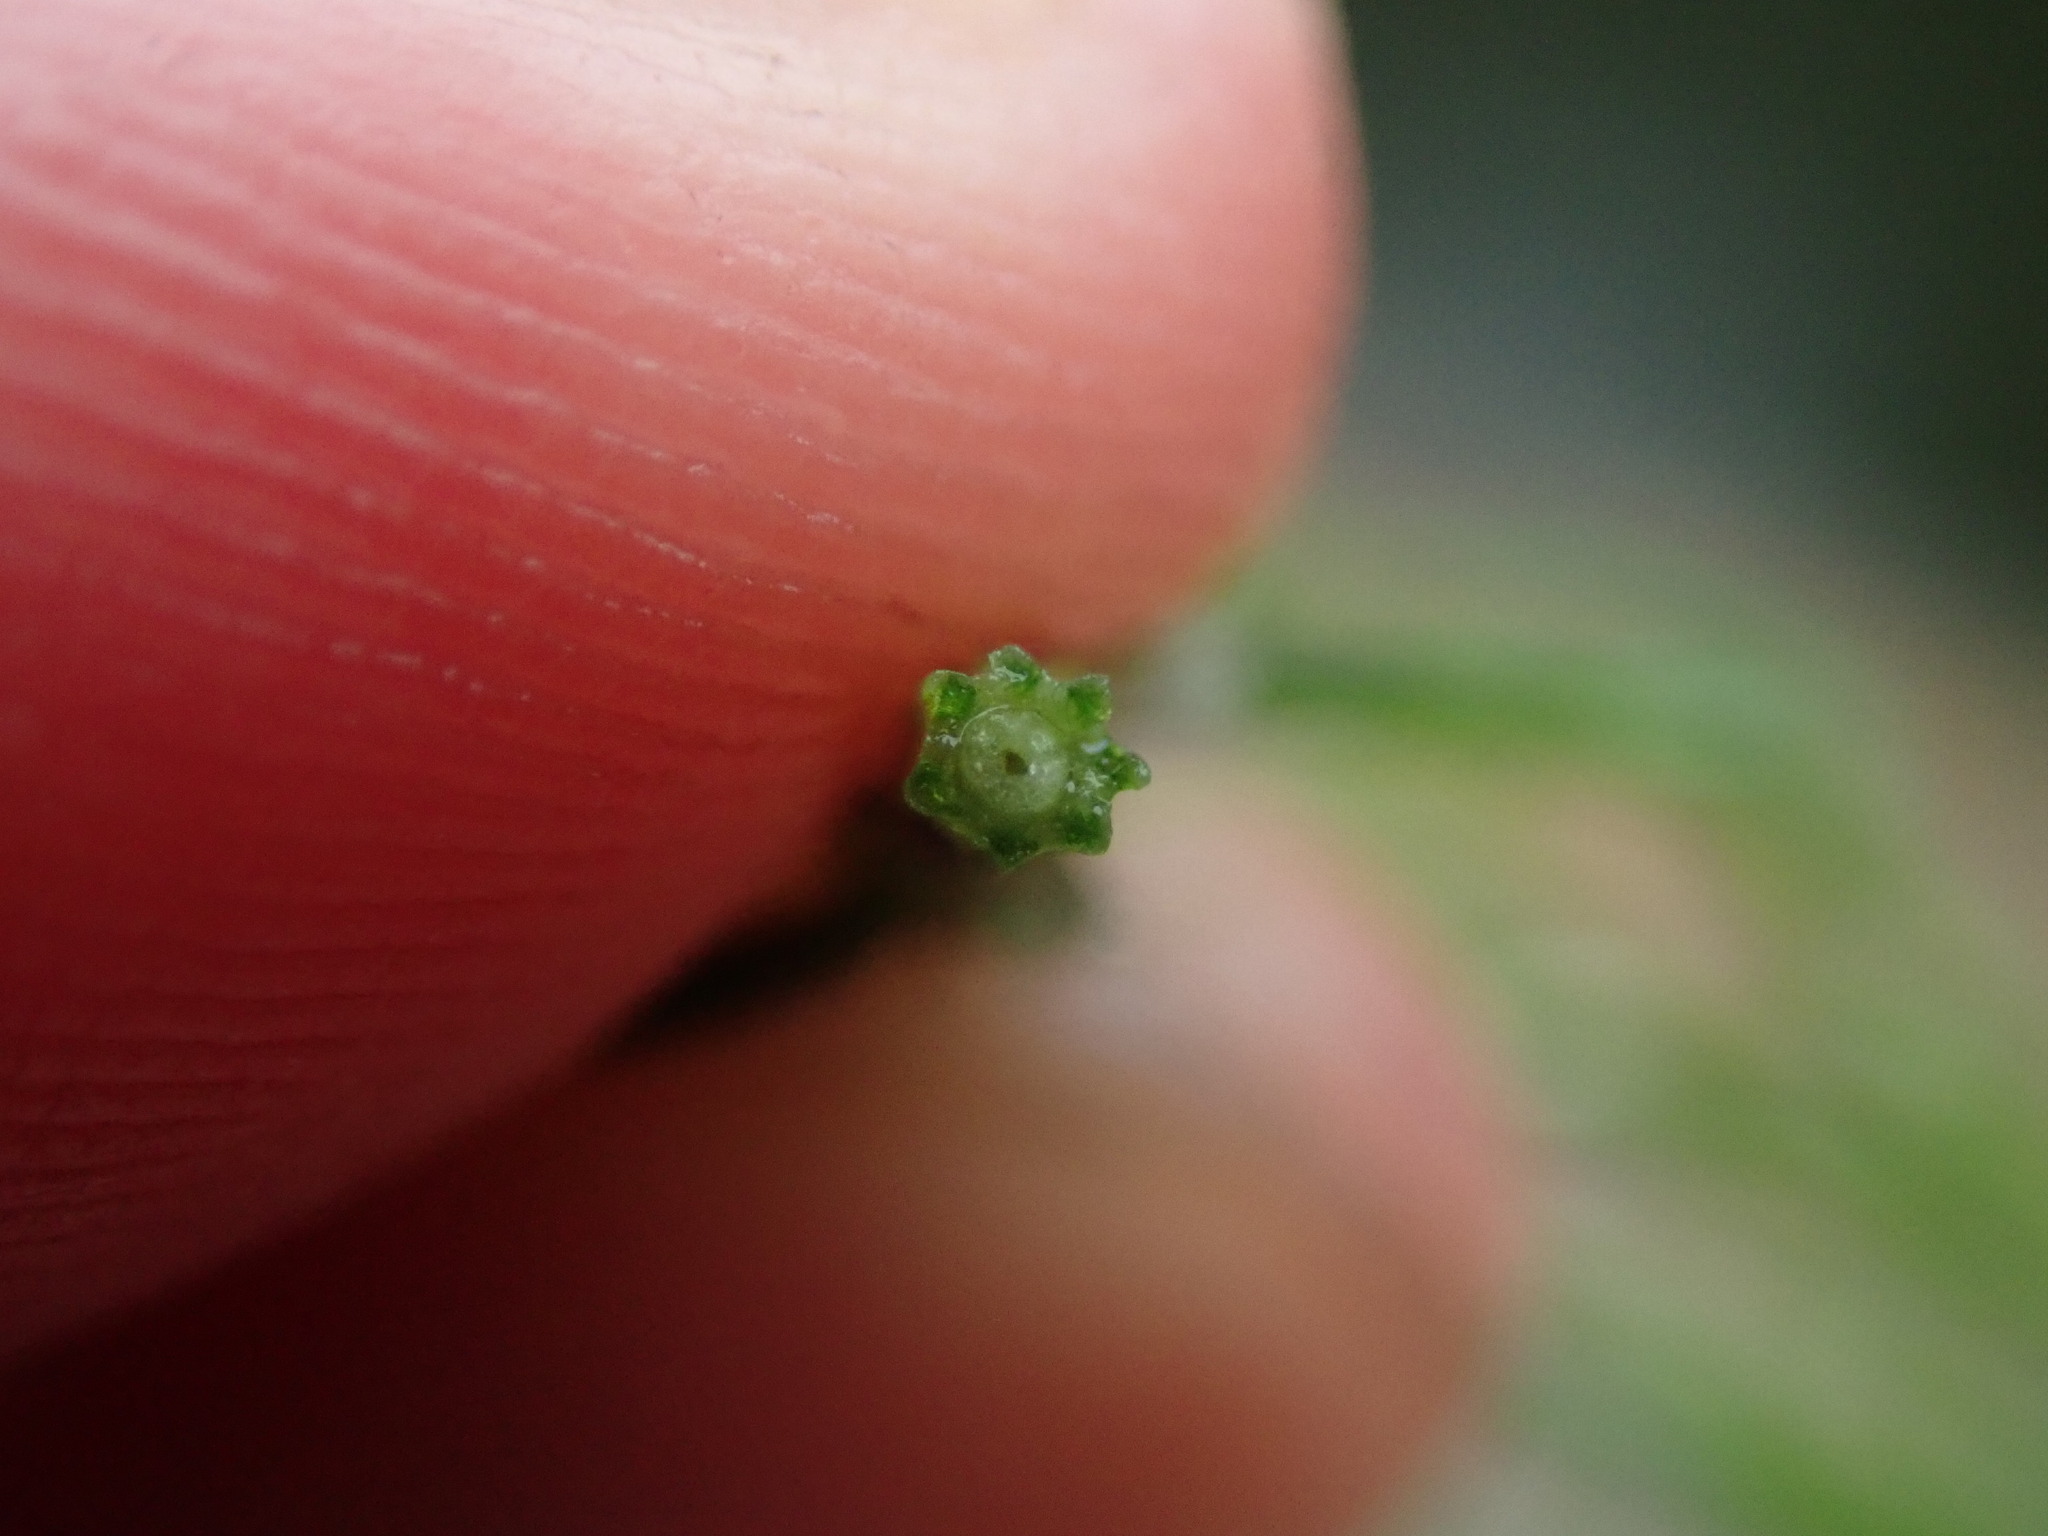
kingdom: Plantae
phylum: Tracheophyta
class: Polypodiopsida
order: Equisetales
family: Equisetaceae
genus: Equisetum
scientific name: Equisetum arvense
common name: Field horsetail
